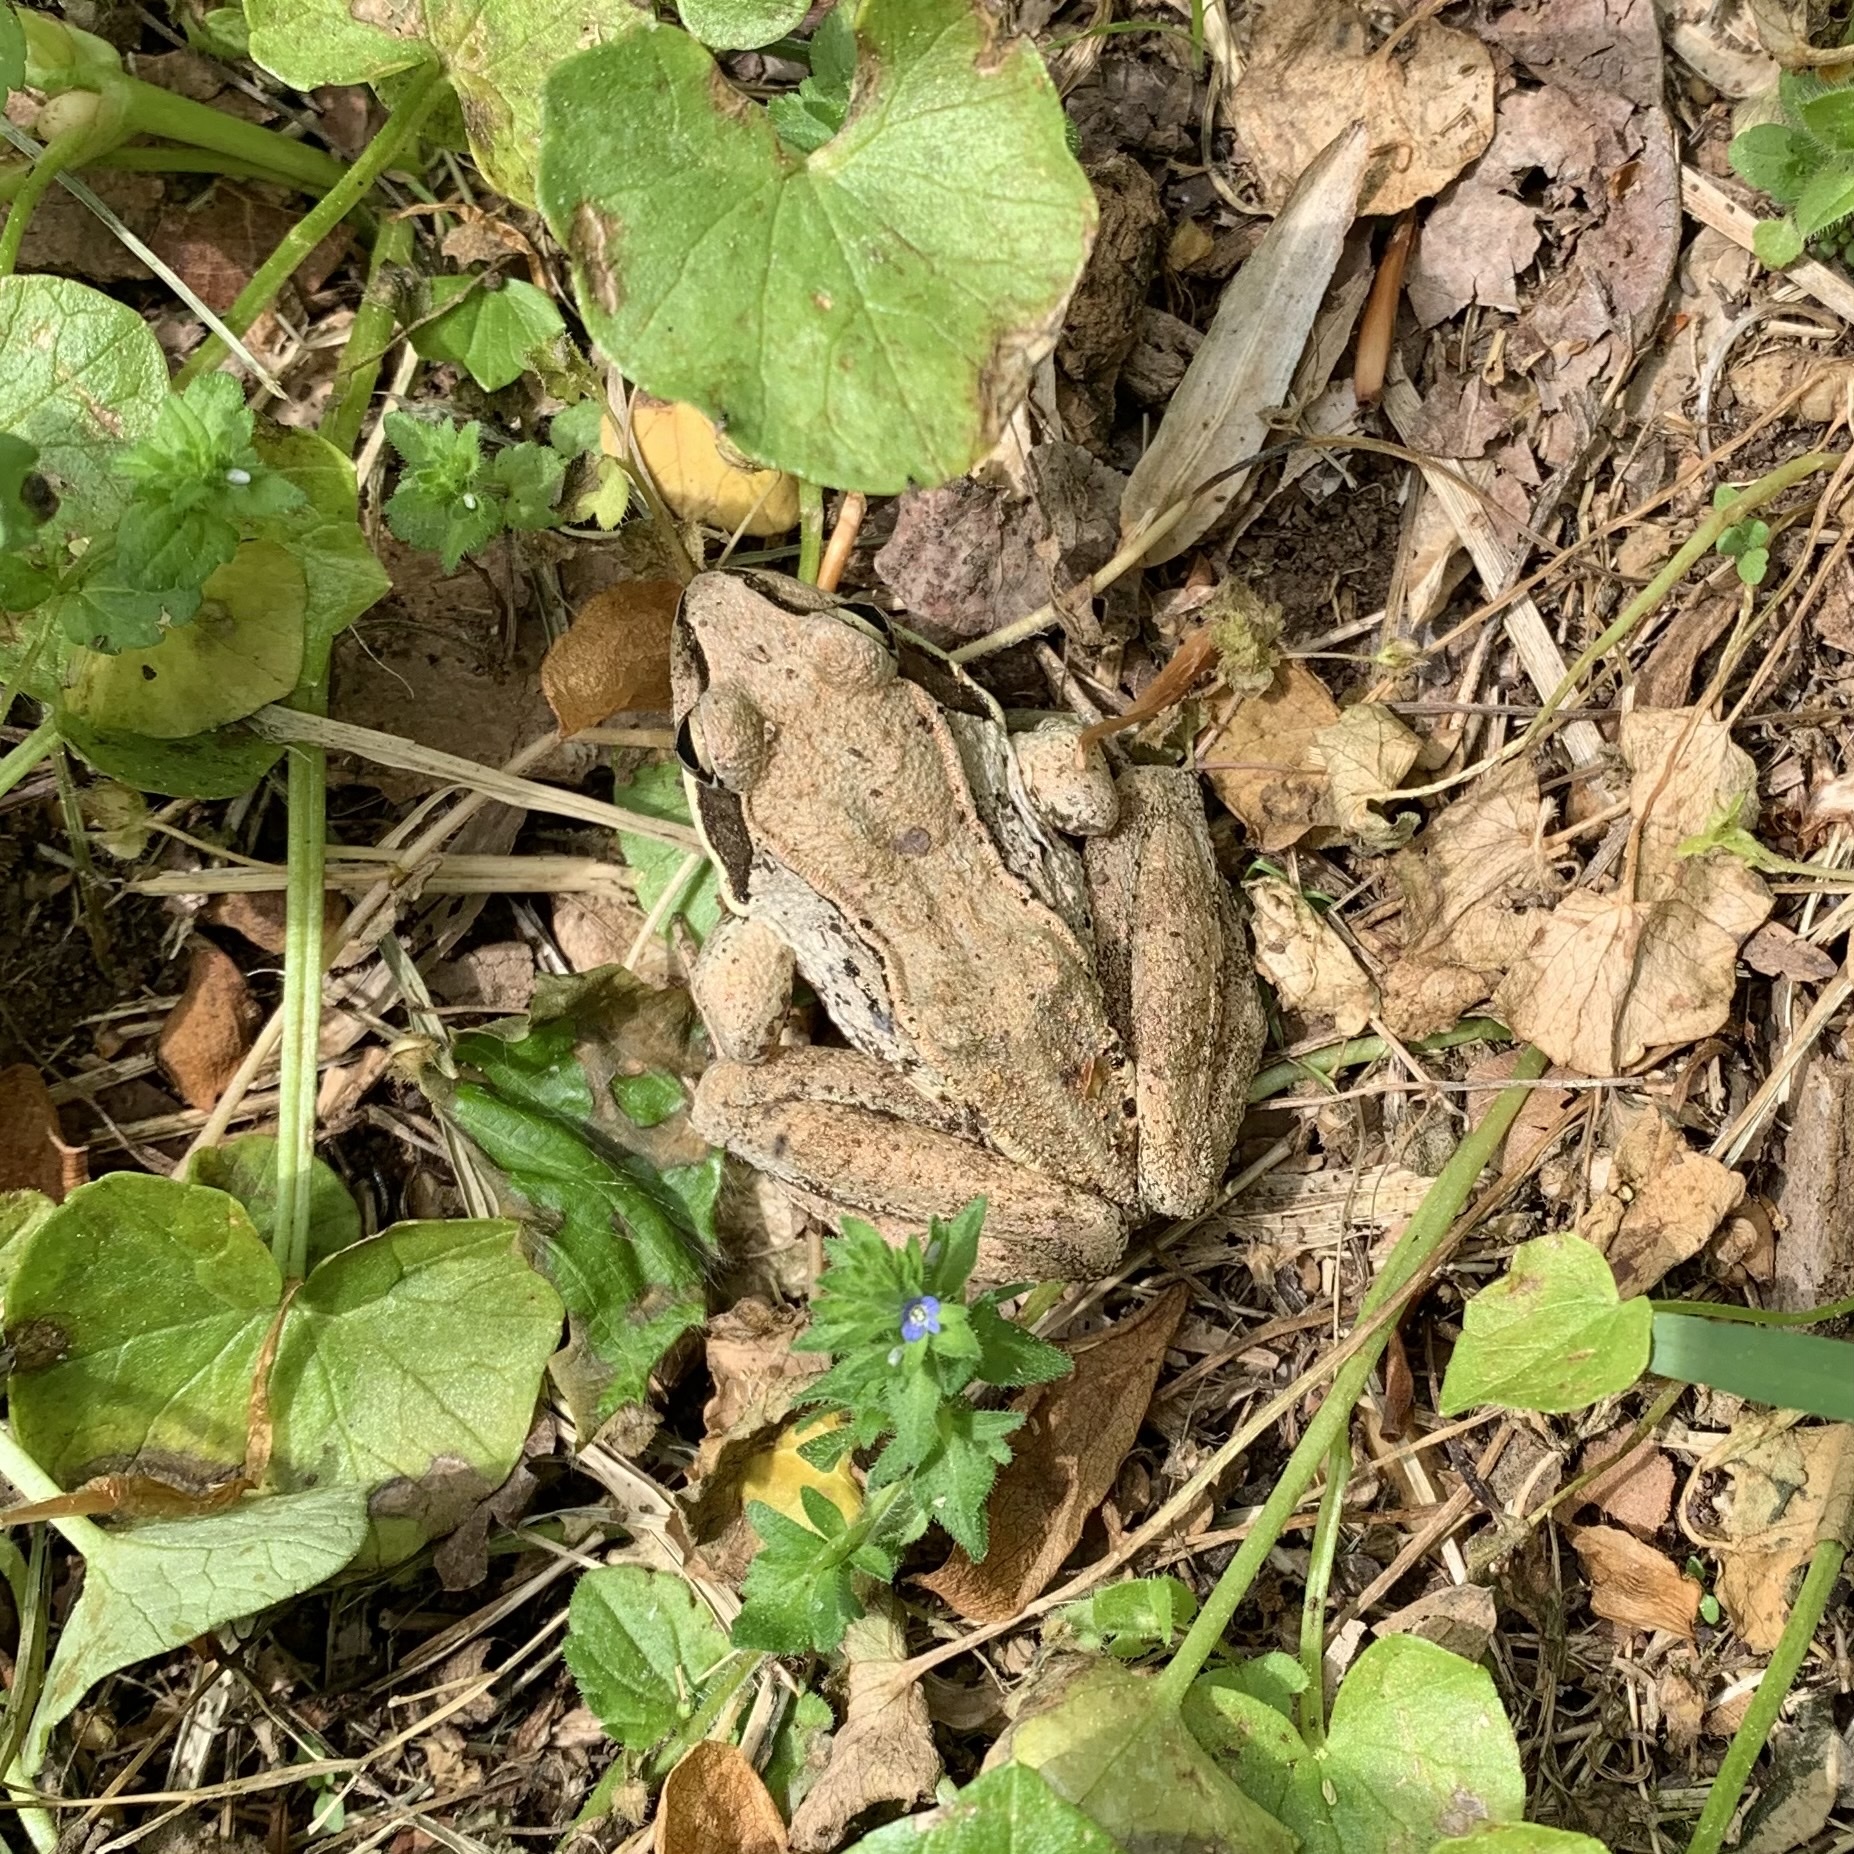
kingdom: Animalia
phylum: Chordata
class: Amphibia
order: Anura
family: Ranidae
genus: Lithobates
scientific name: Lithobates sylvaticus
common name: Wood frog
